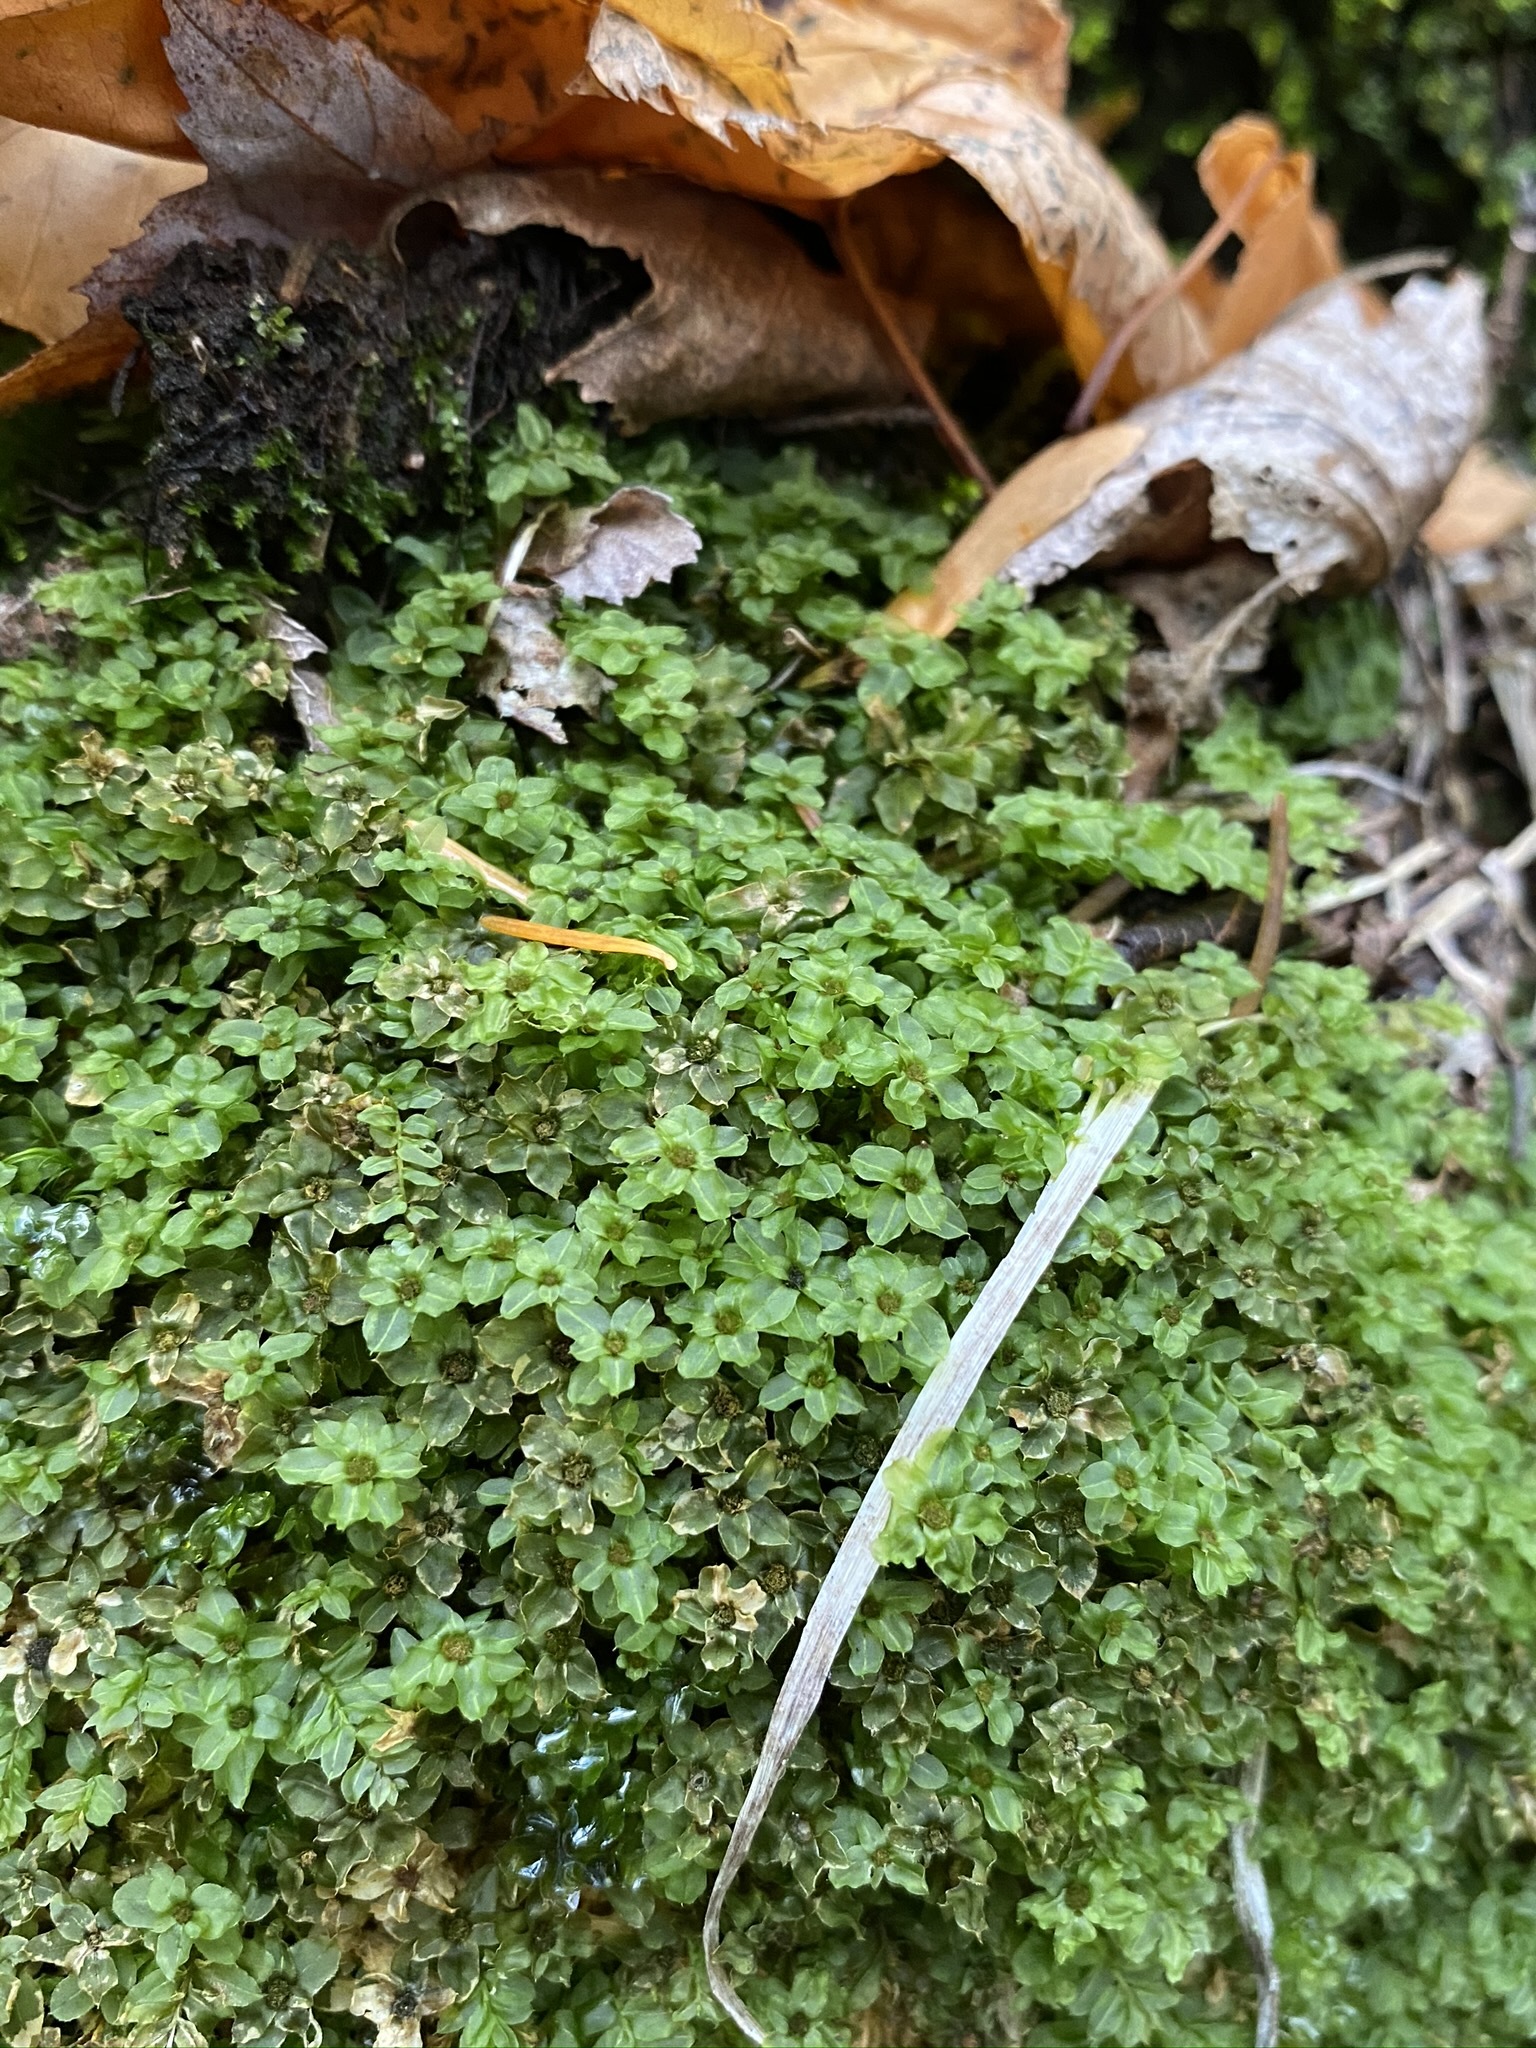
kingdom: Plantae
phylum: Bryophyta
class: Bryopsida
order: Bryales
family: Mniaceae
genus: Rhizomnium
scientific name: Rhizomnium magnifolium
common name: Large-leaved leafy moss
